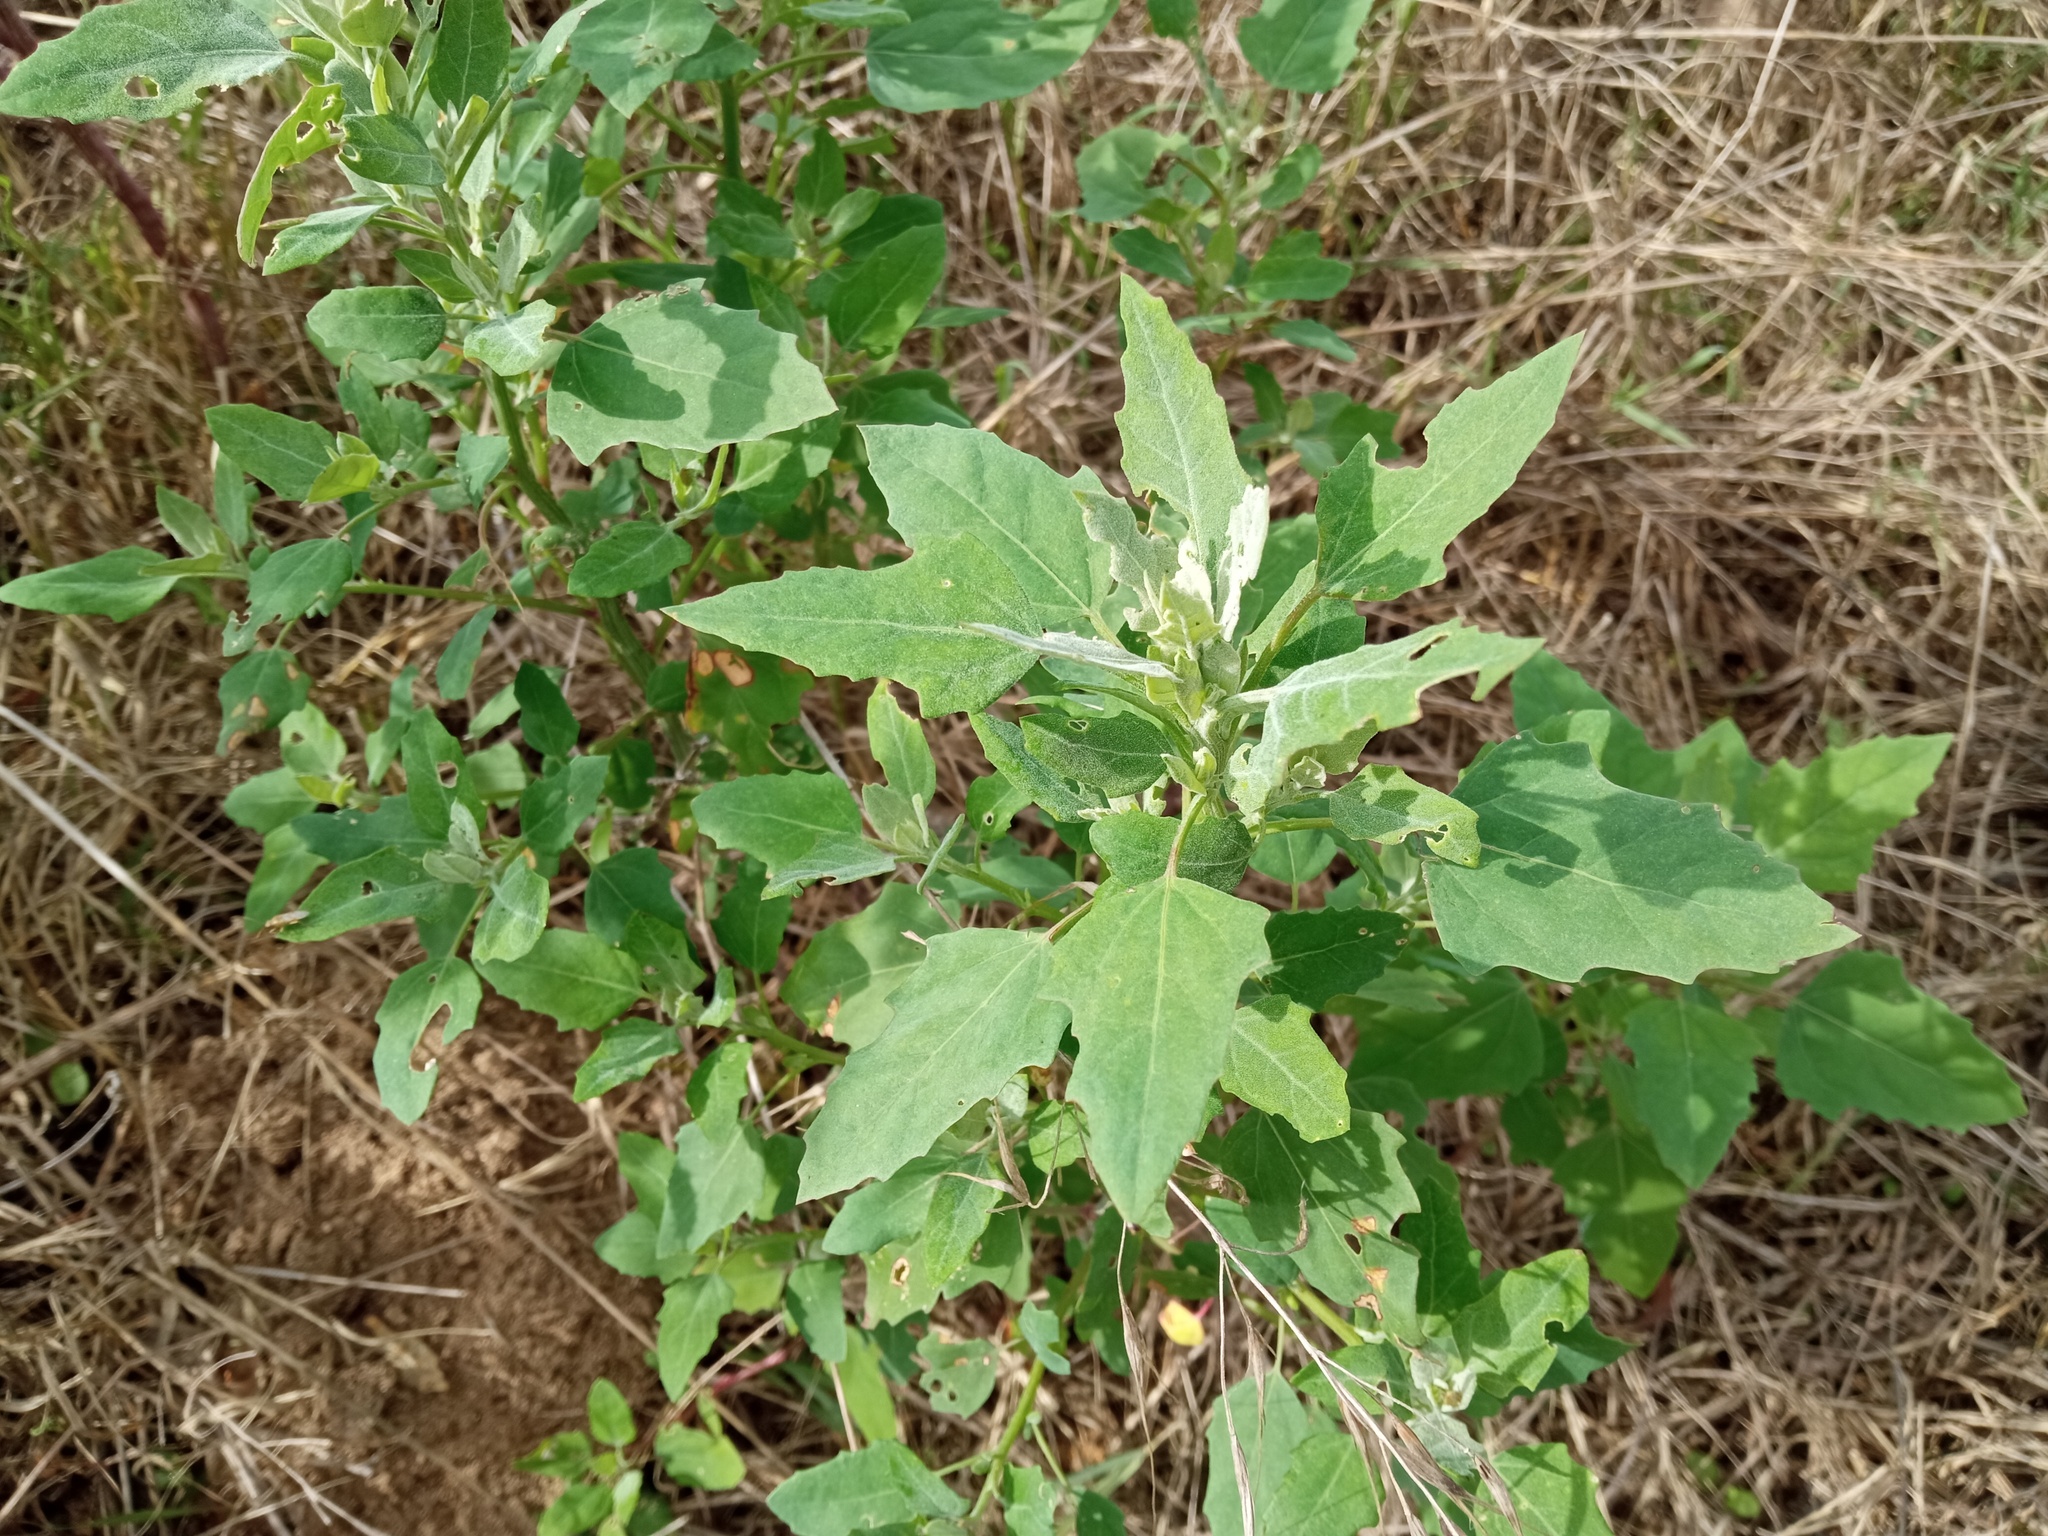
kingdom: Plantae
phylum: Tracheophyta
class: Magnoliopsida
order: Caryophyllales
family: Amaranthaceae
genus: Chenopodium
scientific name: Chenopodium album
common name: Fat-hen
